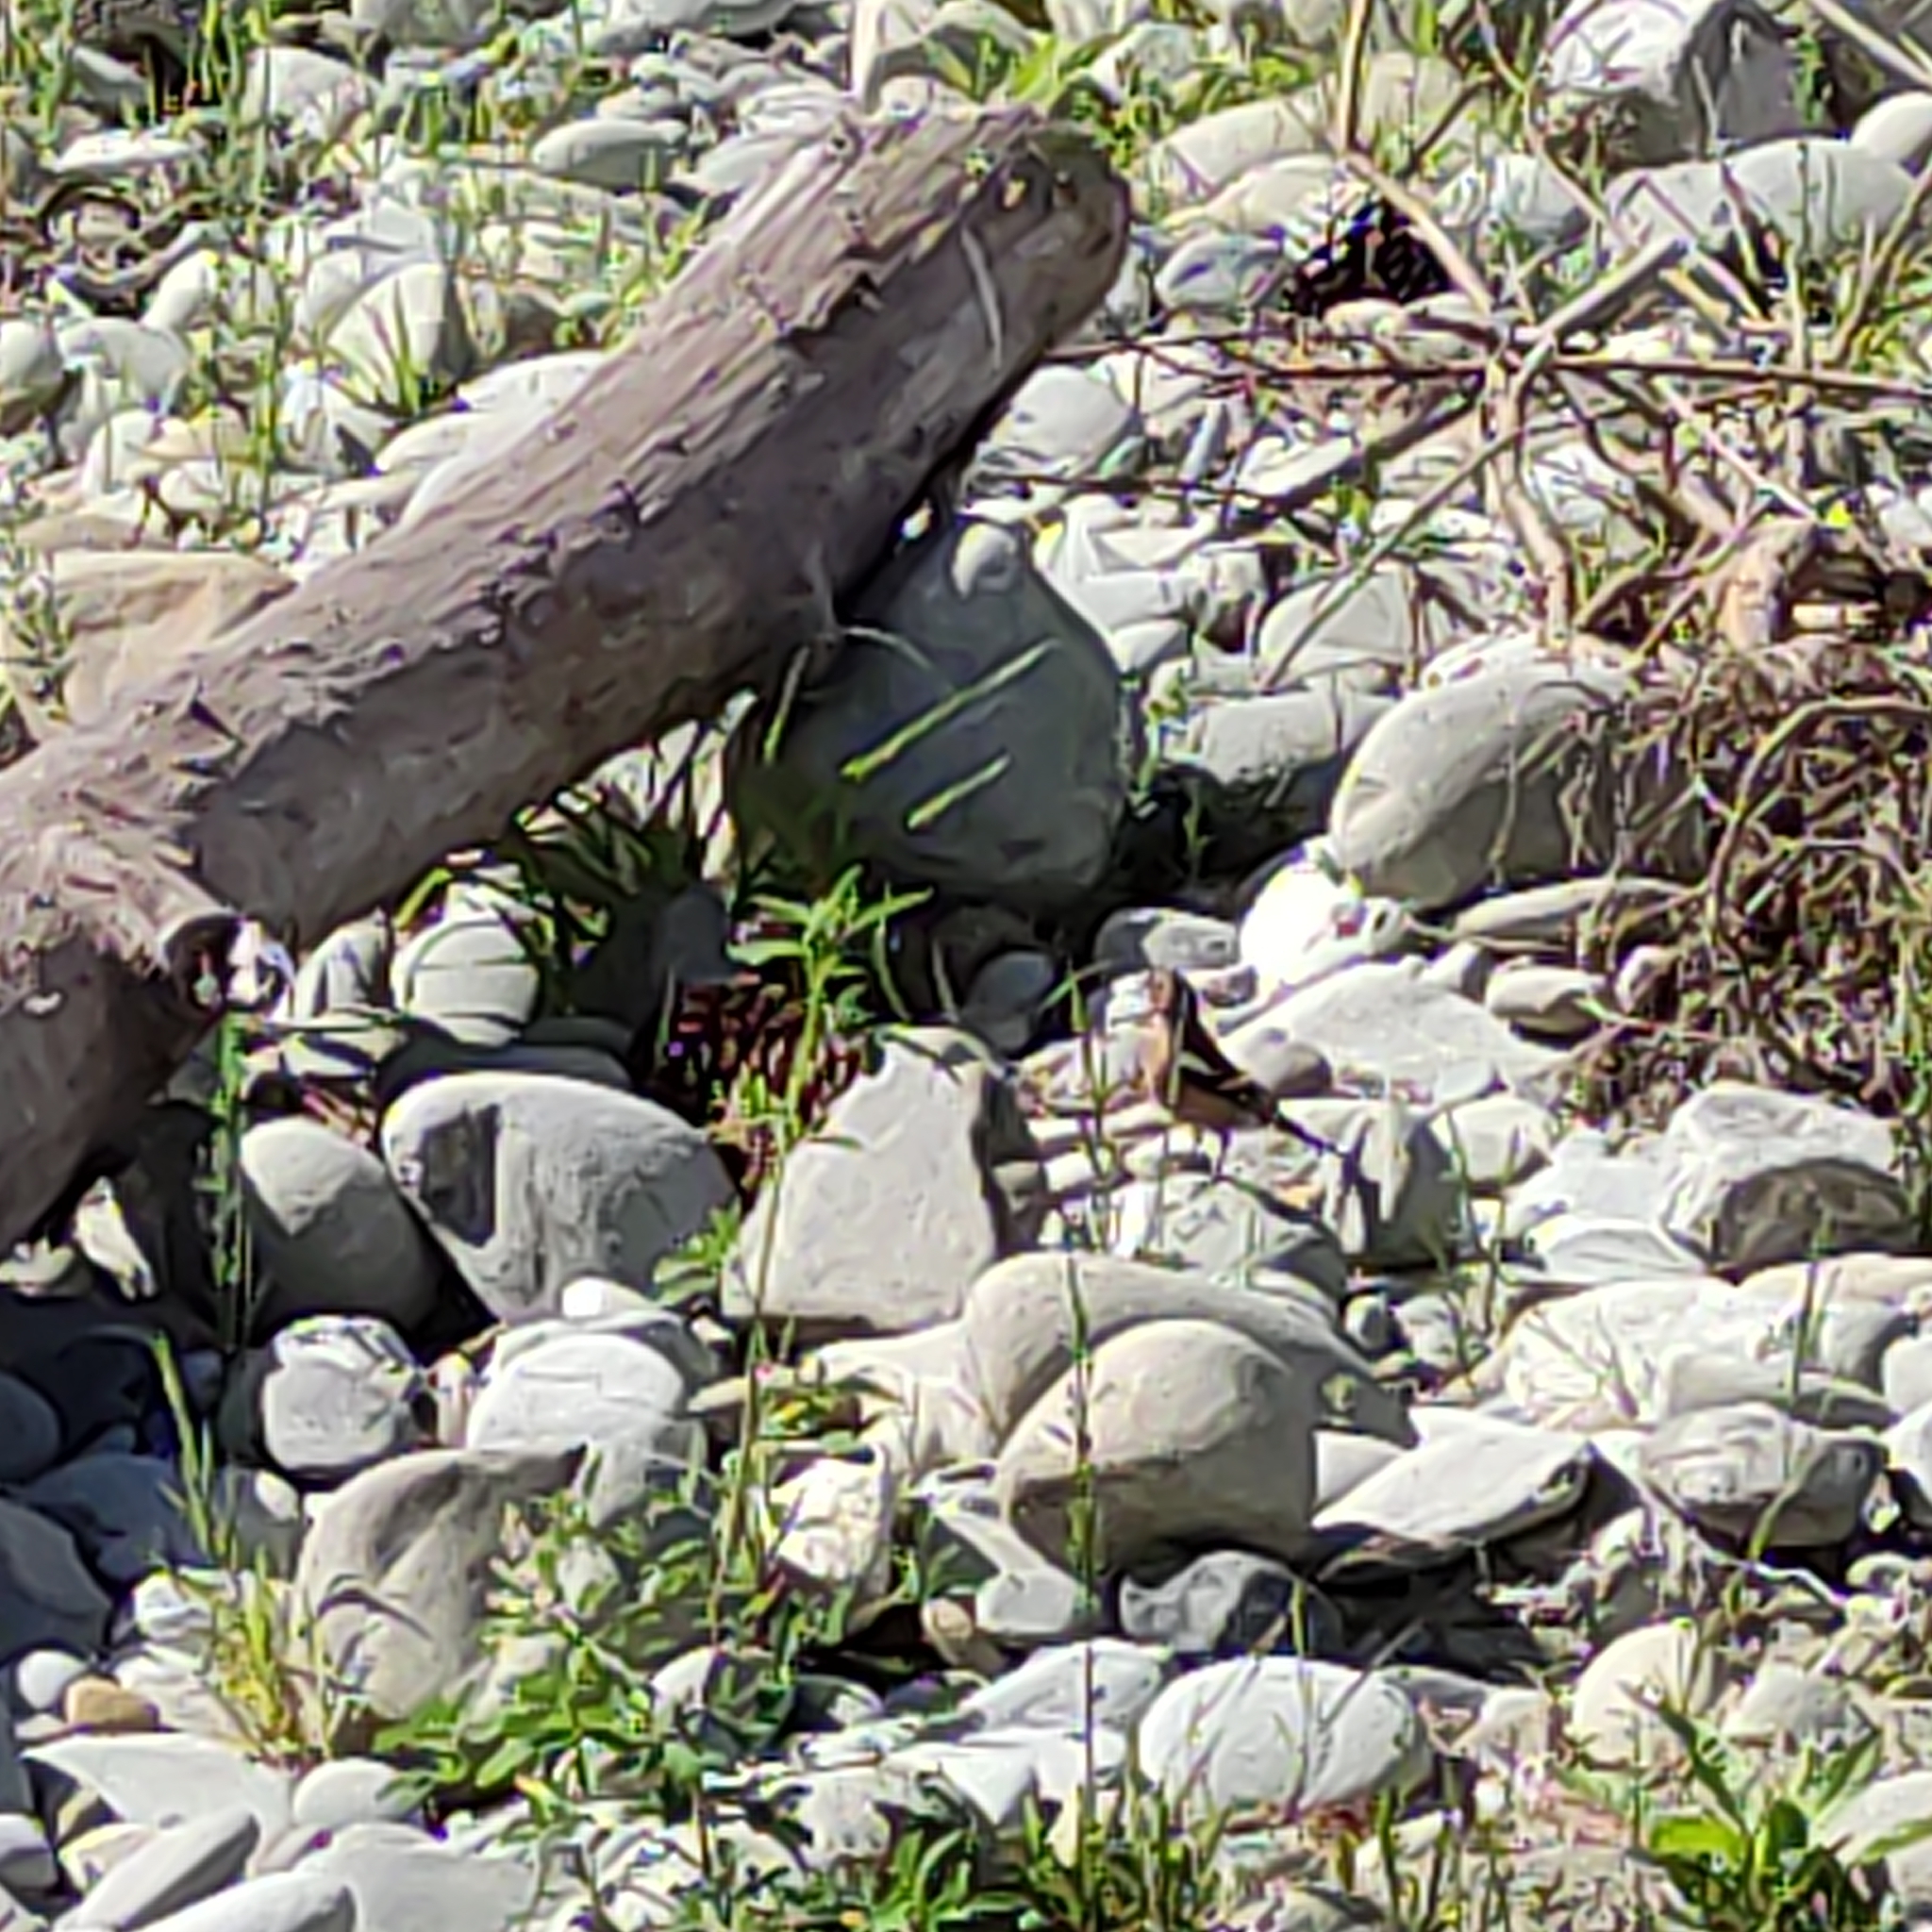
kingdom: Animalia
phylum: Chordata
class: Aves
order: Passeriformes
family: Fringillidae
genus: Fringilla
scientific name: Fringilla coelebs
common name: Common chaffinch
